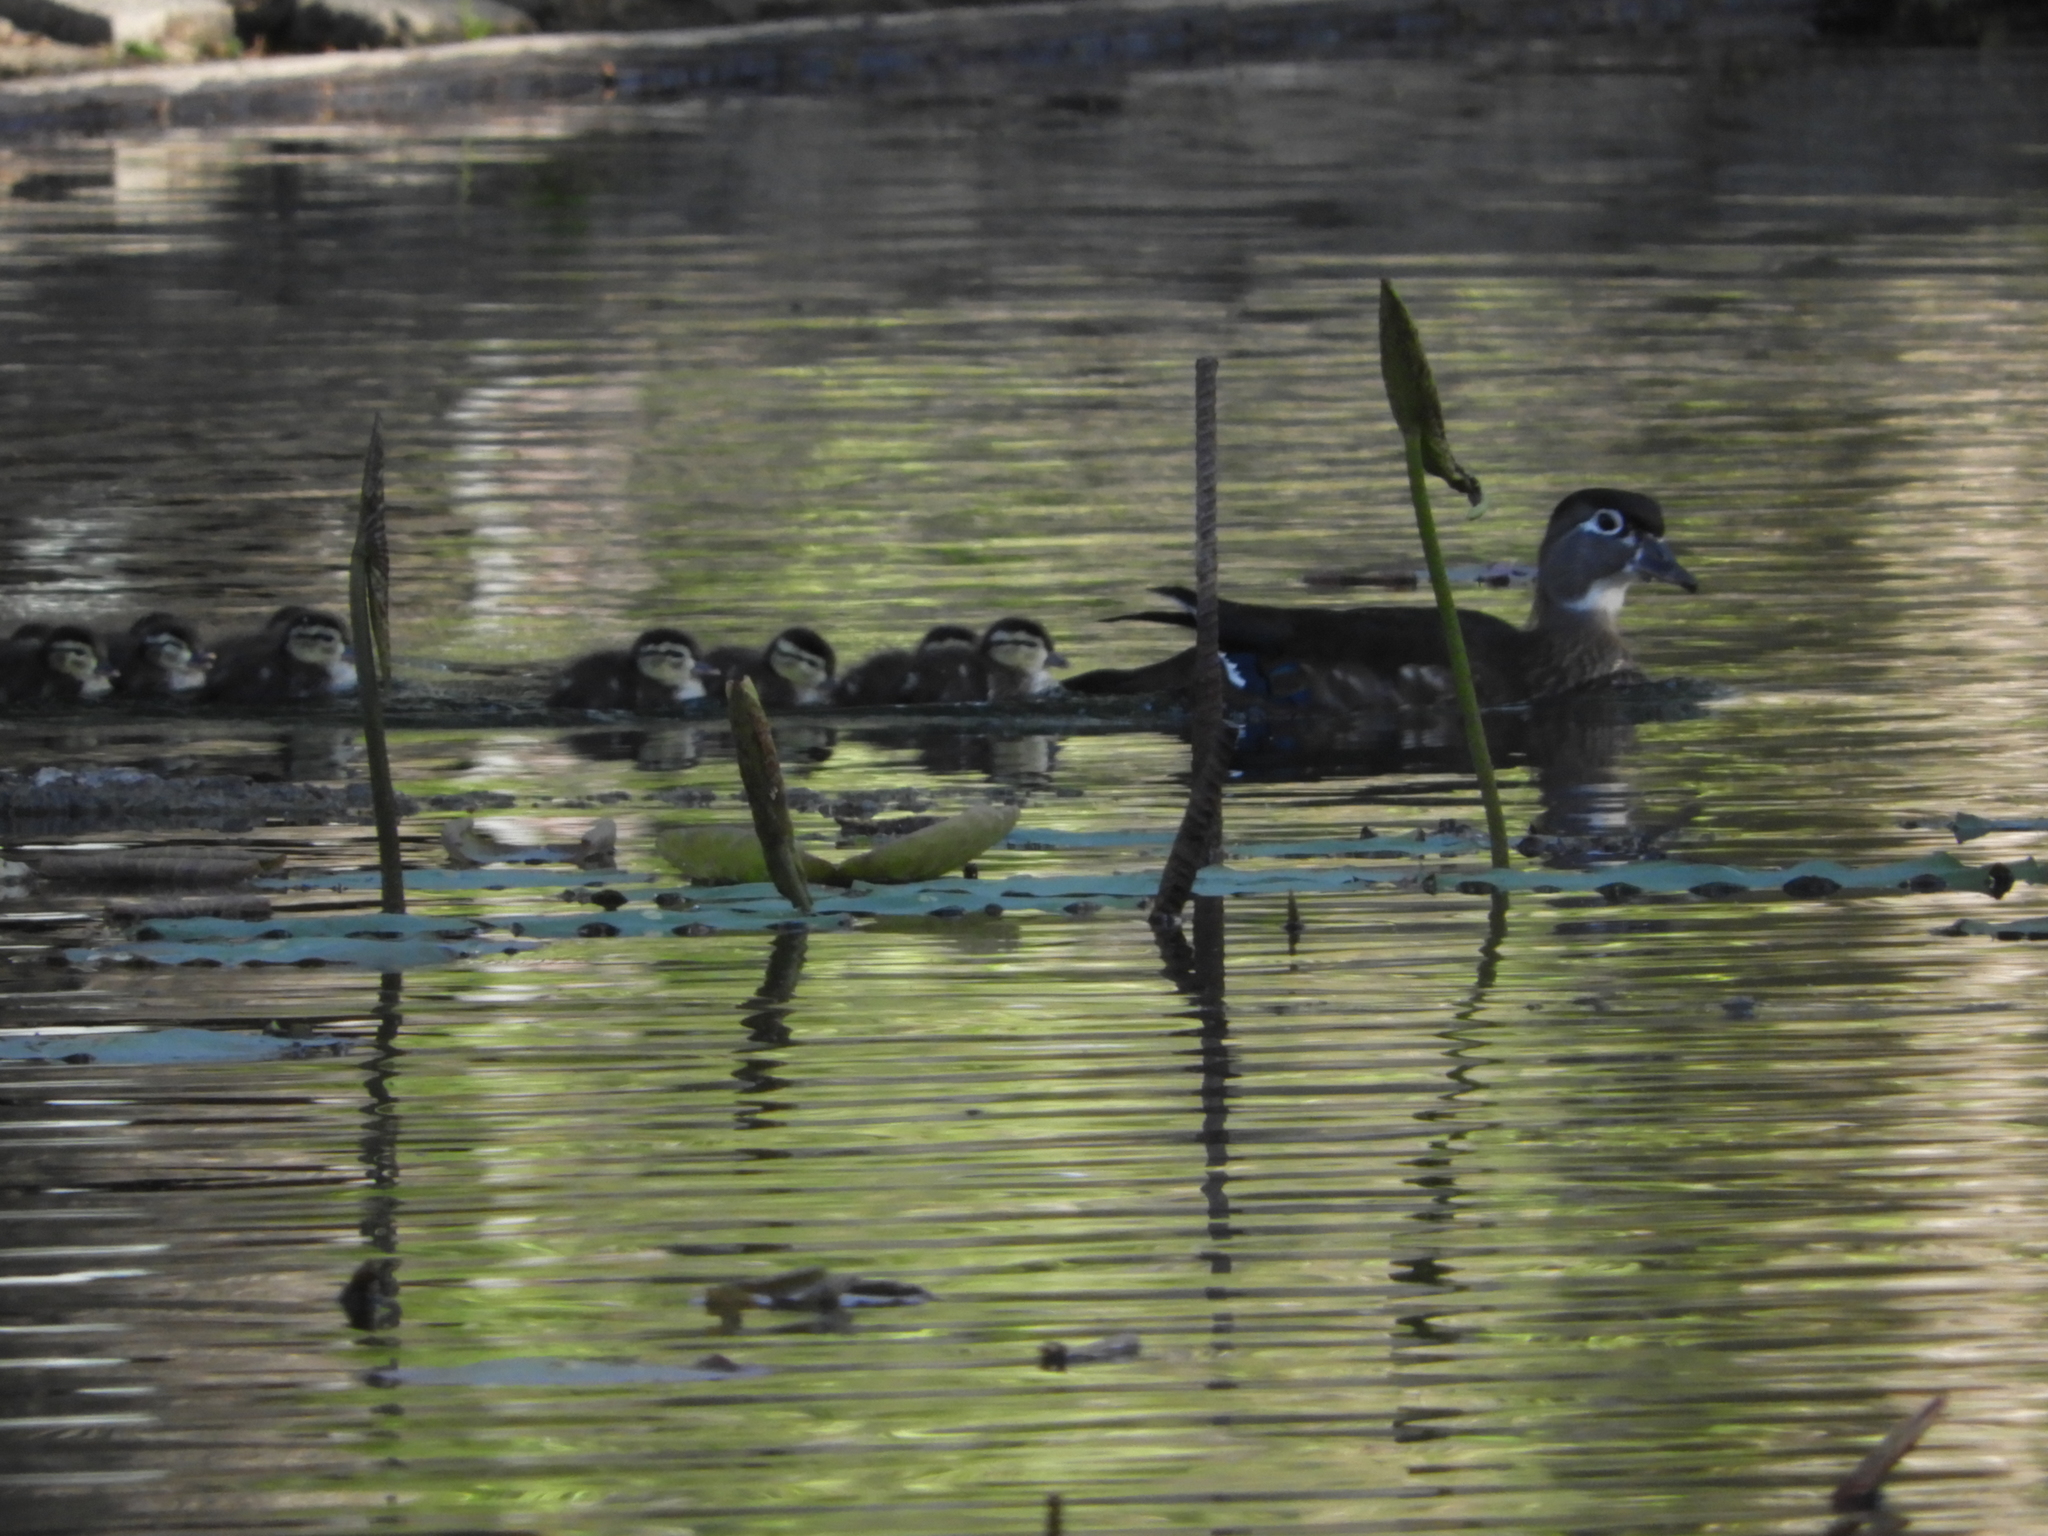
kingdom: Animalia
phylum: Chordata
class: Aves
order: Anseriformes
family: Anatidae
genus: Aix
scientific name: Aix sponsa
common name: Wood duck
